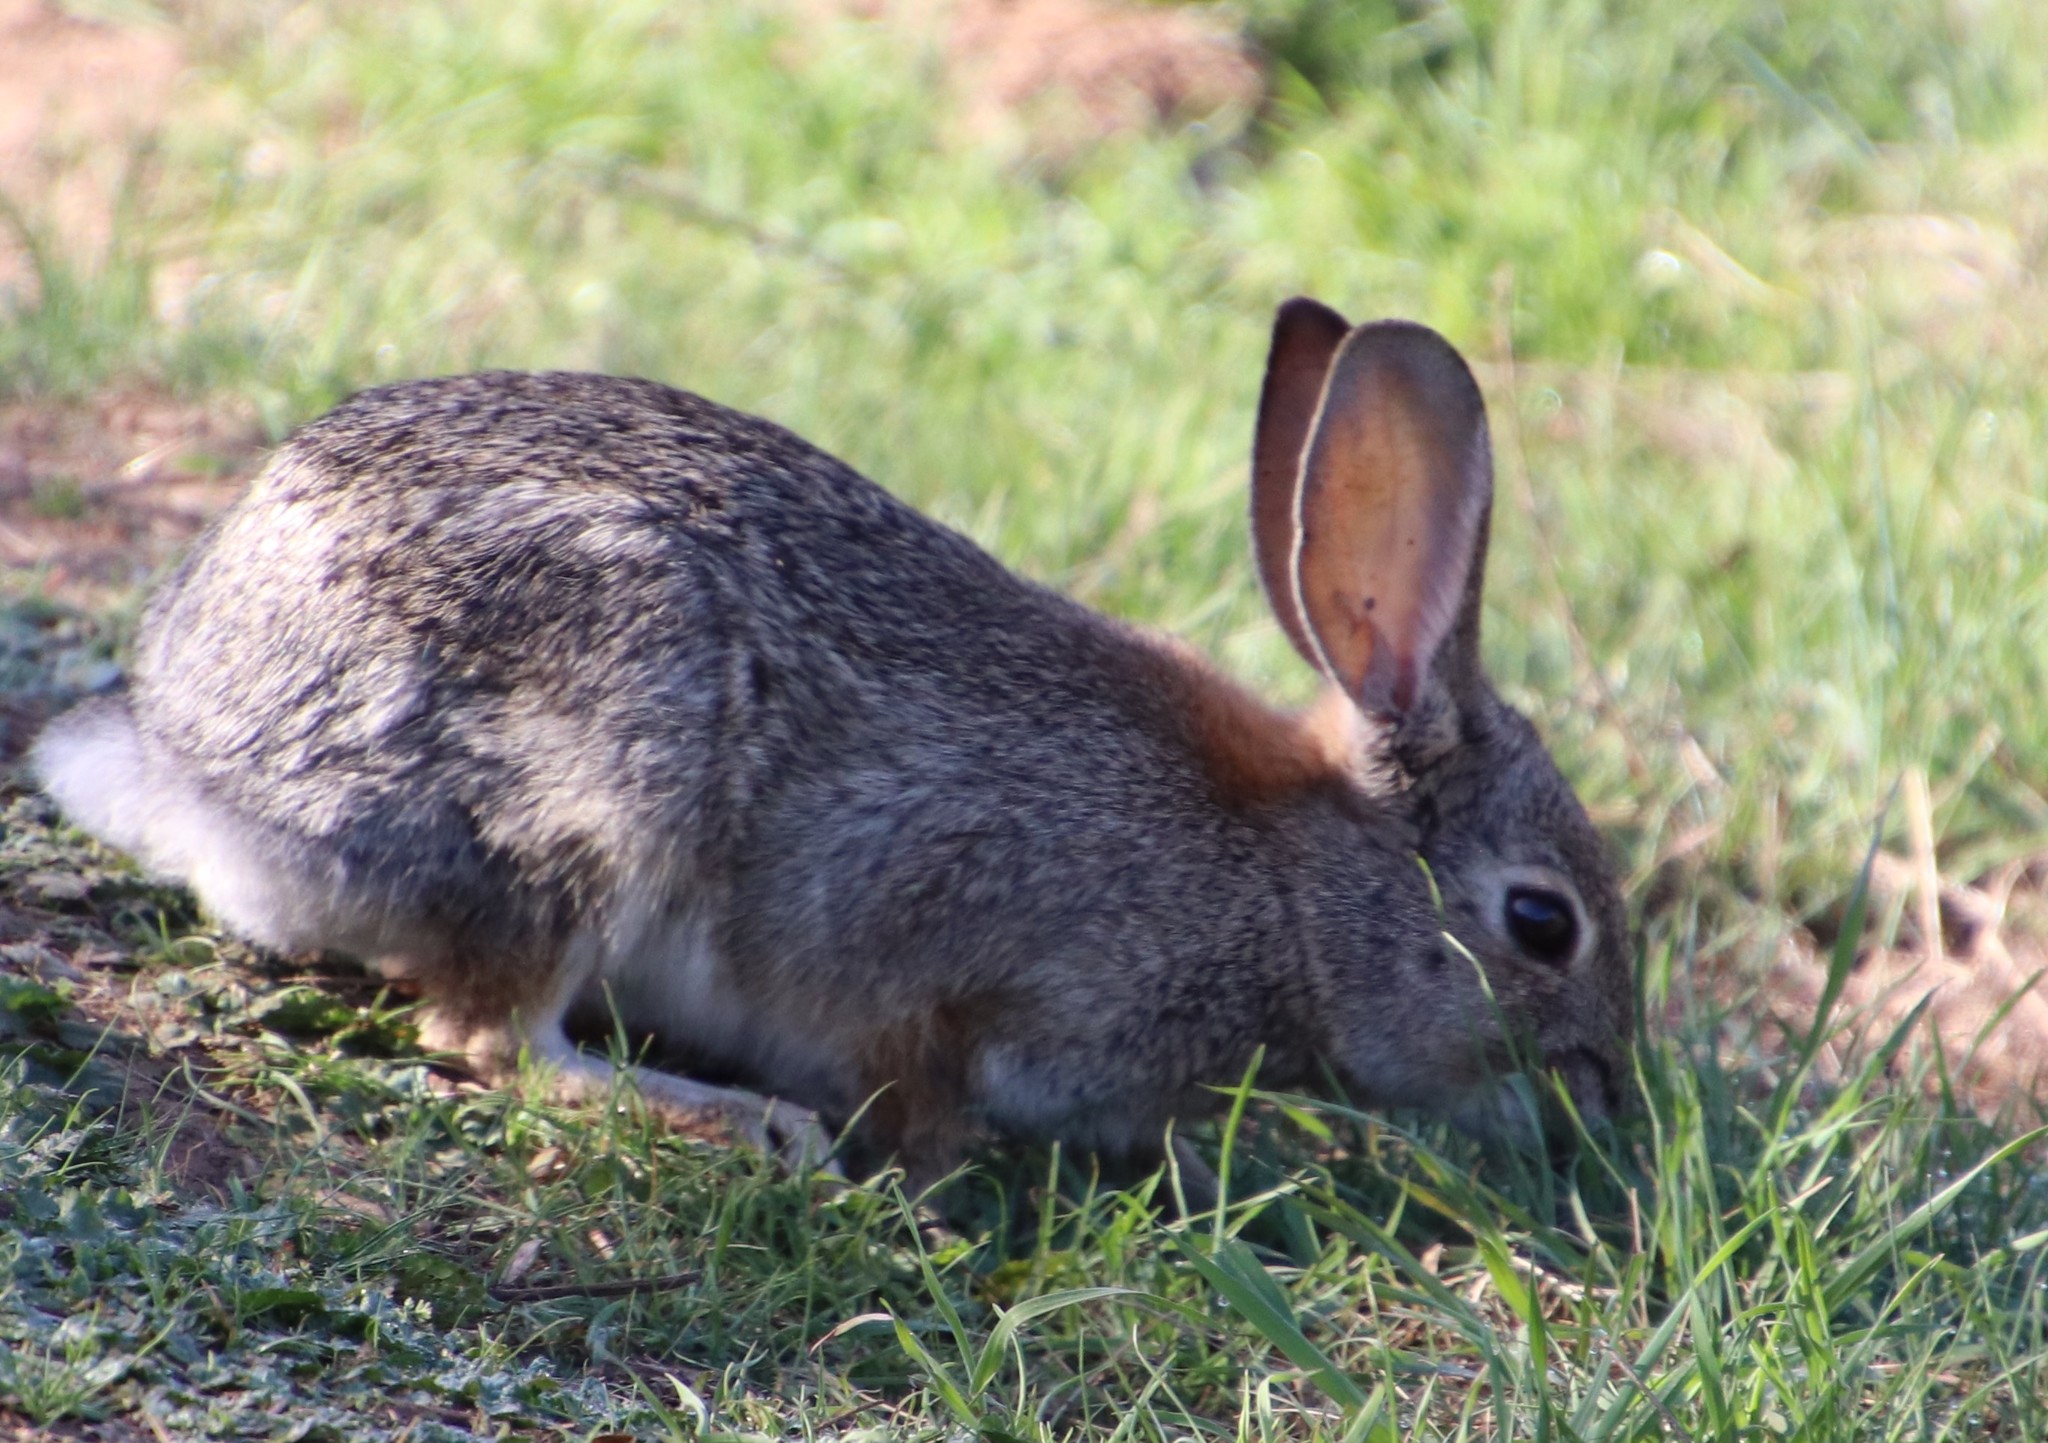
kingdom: Animalia
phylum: Chordata
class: Mammalia
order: Lagomorpha
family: Leporidae
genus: Sylvilagus
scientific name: Sylvilagus audubonii
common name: Desert cottontail
